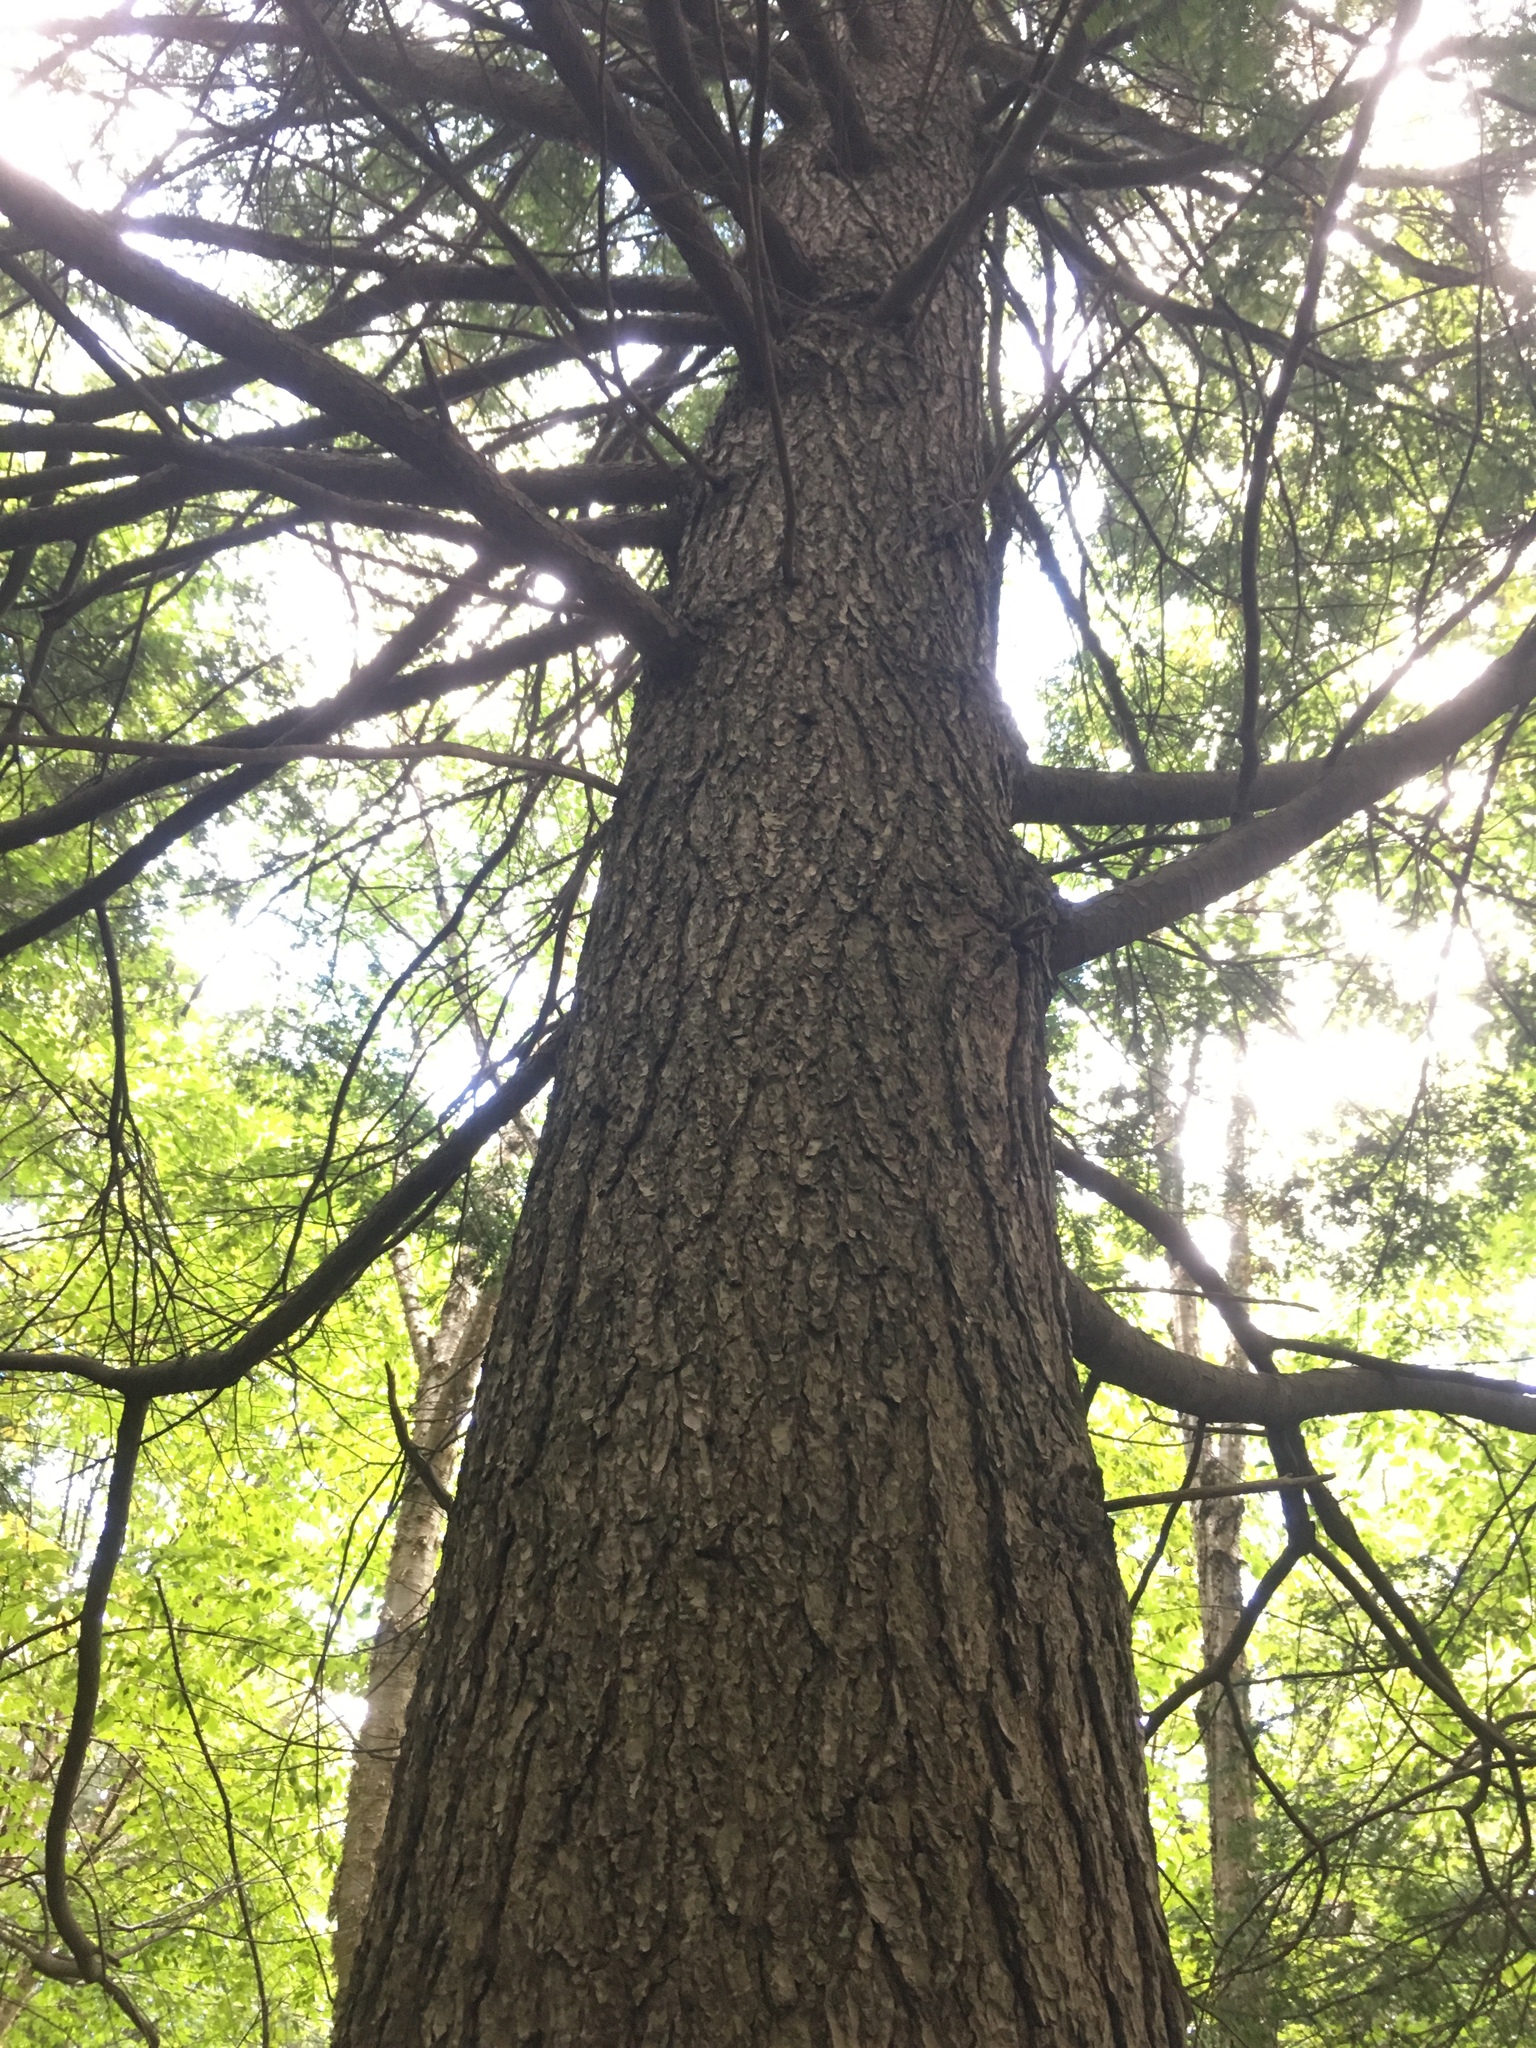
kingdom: Plantae
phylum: Tracheophyta
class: Pinopsida
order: Pinales
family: Pinaceae
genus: Tsuga
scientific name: Tsuga canadensis
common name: Eastern hemlock
